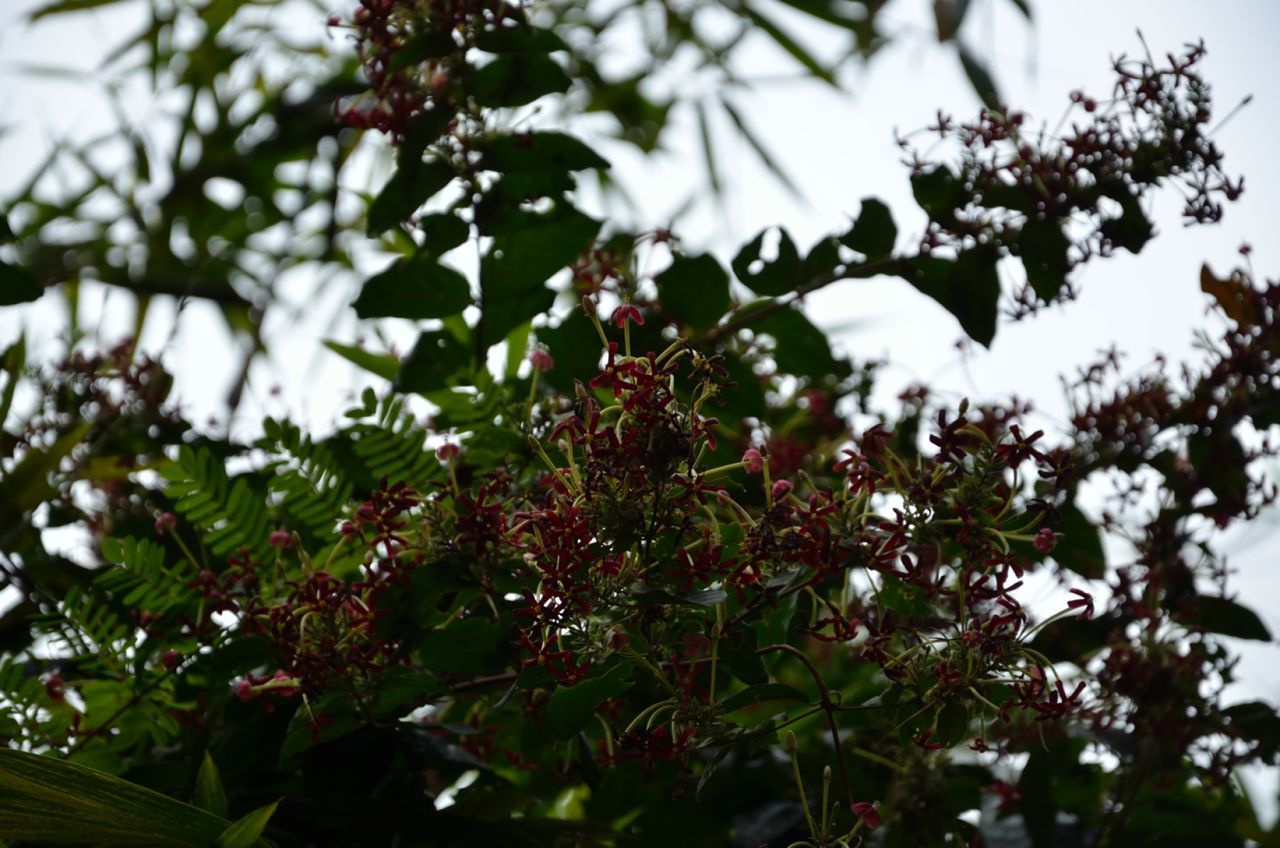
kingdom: Plantae
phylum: Tracheophyta
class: Magnoliopsida
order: Myrtales
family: Combretaceae
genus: Combretum
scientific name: Combretum indicum
